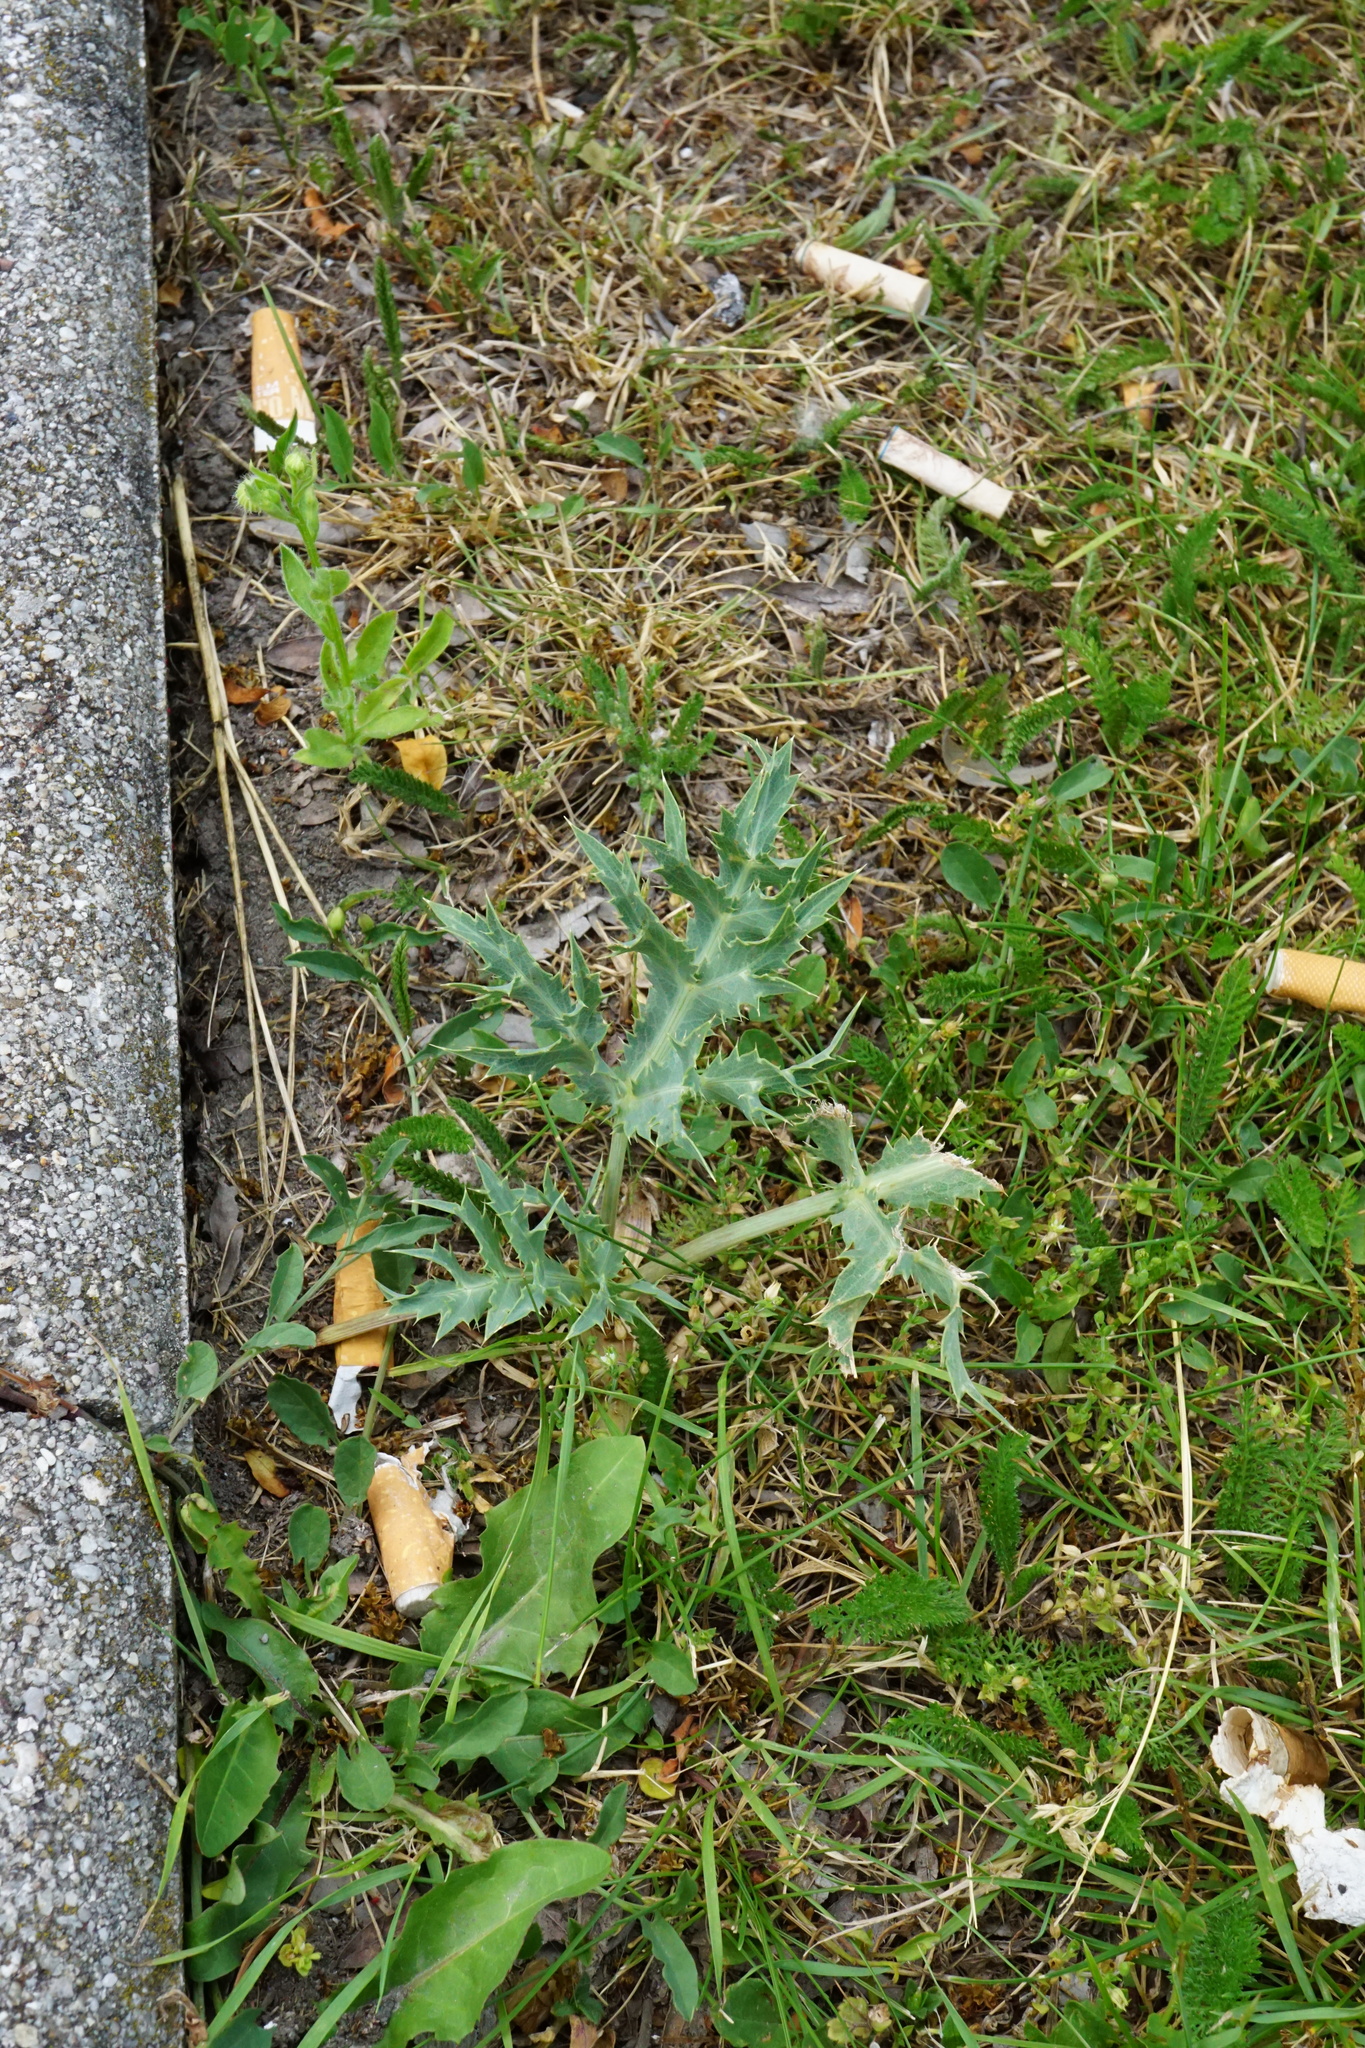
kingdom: Plantae
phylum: Tracheophyta
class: Magnoliopsida
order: Apiales
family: Apiaceae
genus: Eryngium
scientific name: Eryngium campestre
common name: Field eryngo
